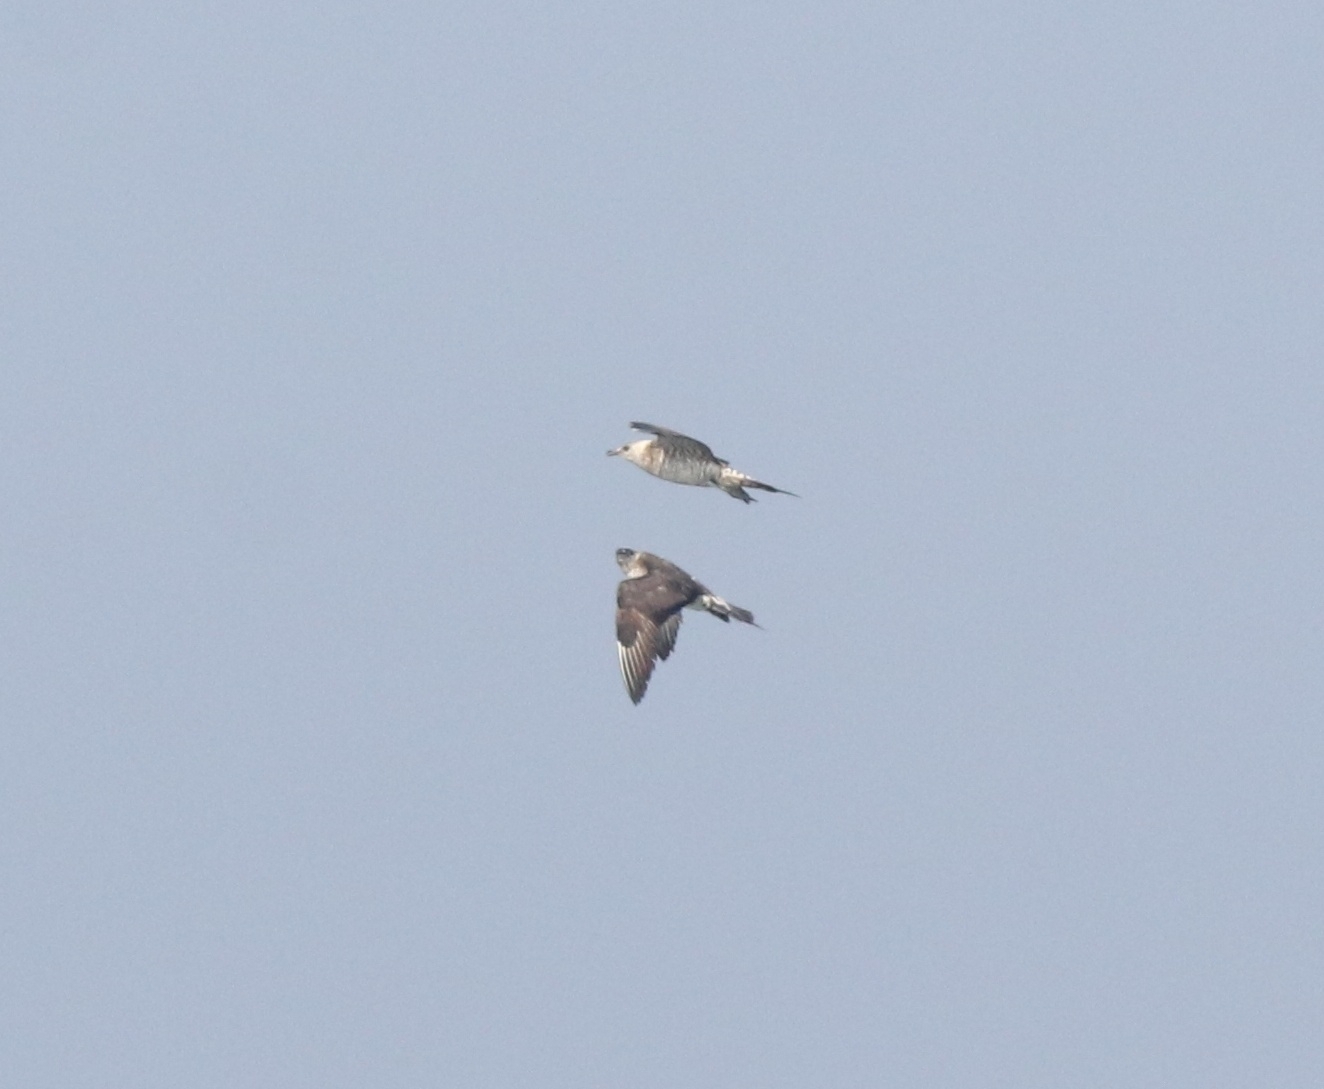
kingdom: Animalia
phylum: Chordata
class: Aves
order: Charadriiformes
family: Stercorariidae
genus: Stercorarius
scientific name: Stercorarius parasiticus
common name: Parasitic jaeger
